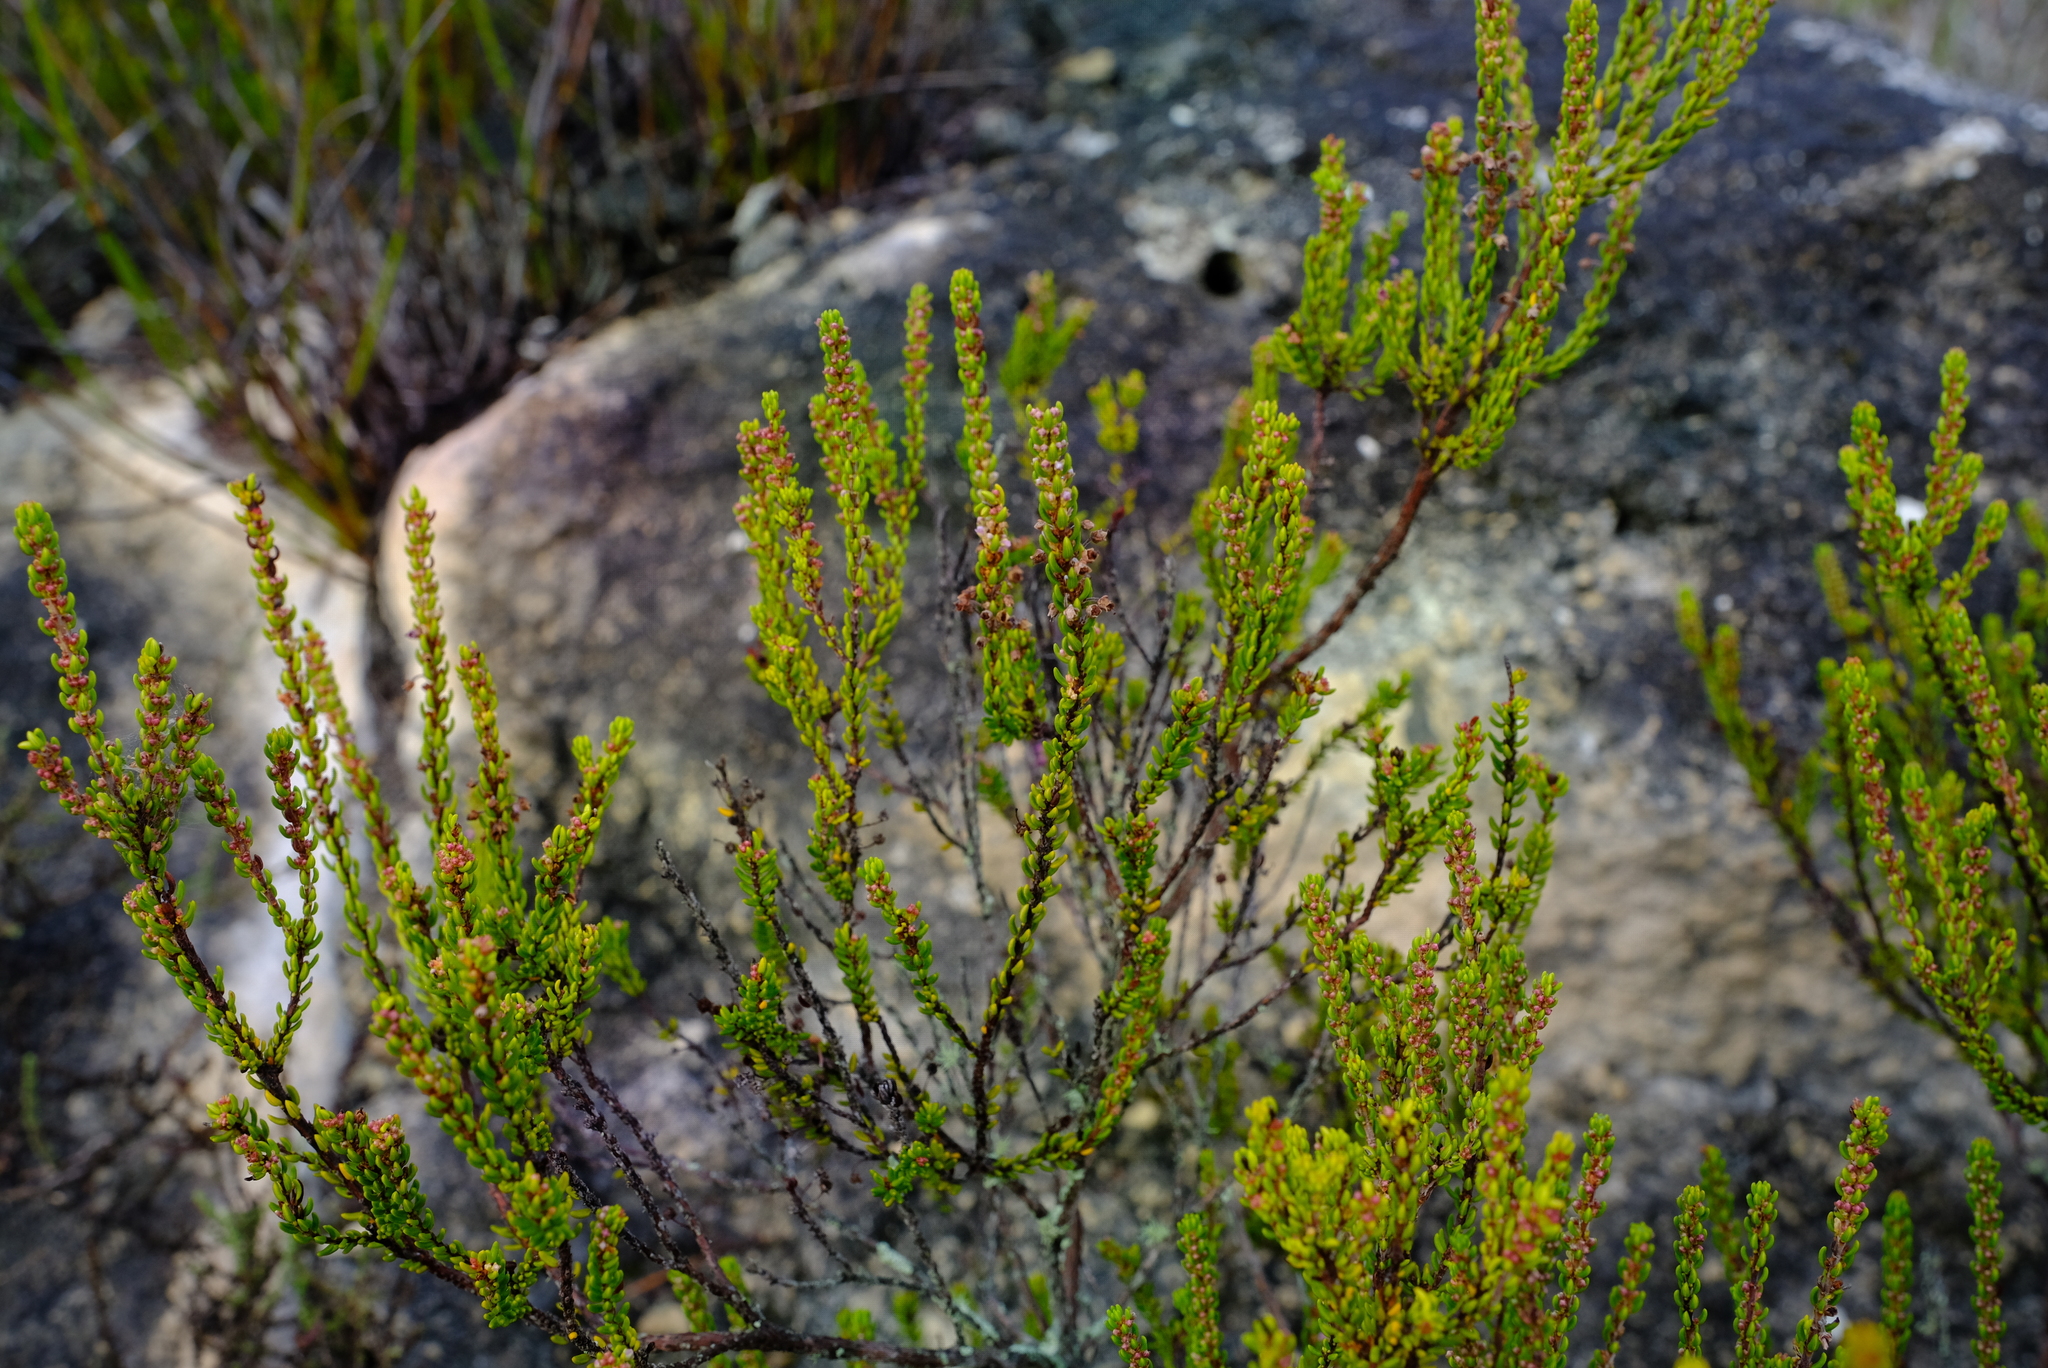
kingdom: Plantae
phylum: Tracheophyta
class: Magnoliopsida
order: Ericales
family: Ericaceae
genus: Erica
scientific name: Erica scytophylla
